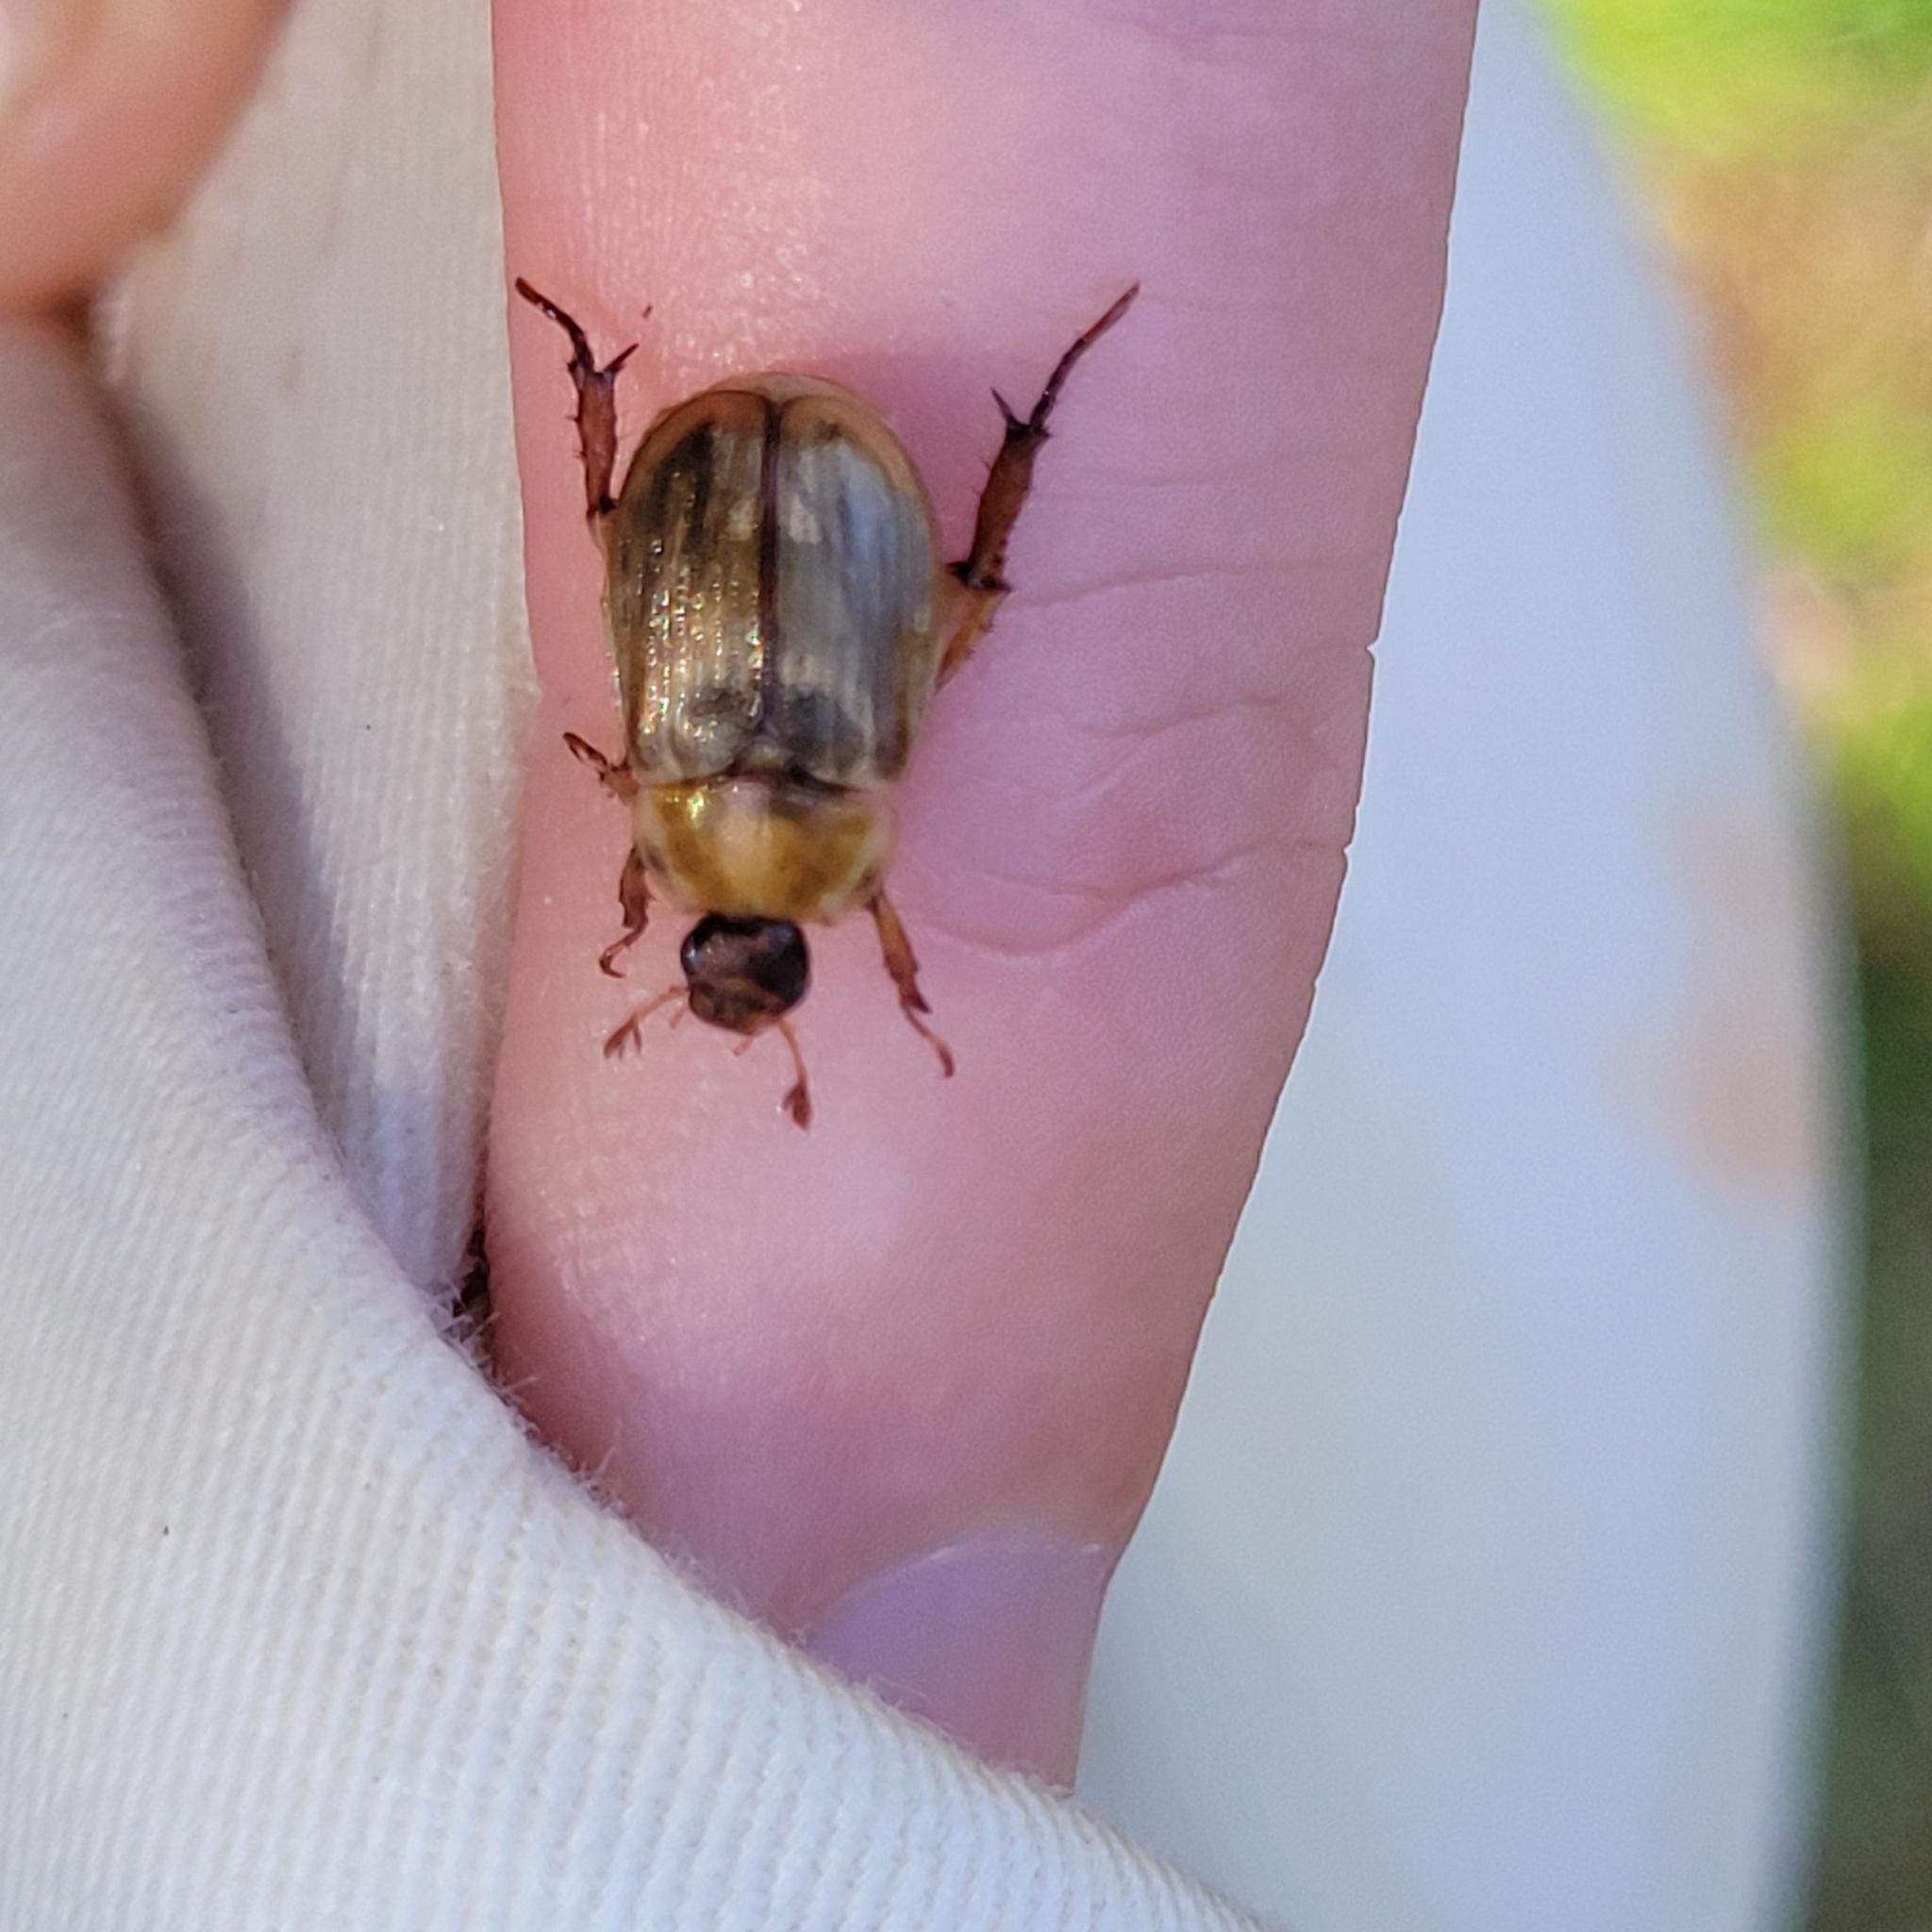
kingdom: Animalia
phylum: Arthropoda
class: Insecta
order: Coleoptera
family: Scarabaeidae
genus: Exomala
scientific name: Exomala orientalis
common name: Oriental beetle
